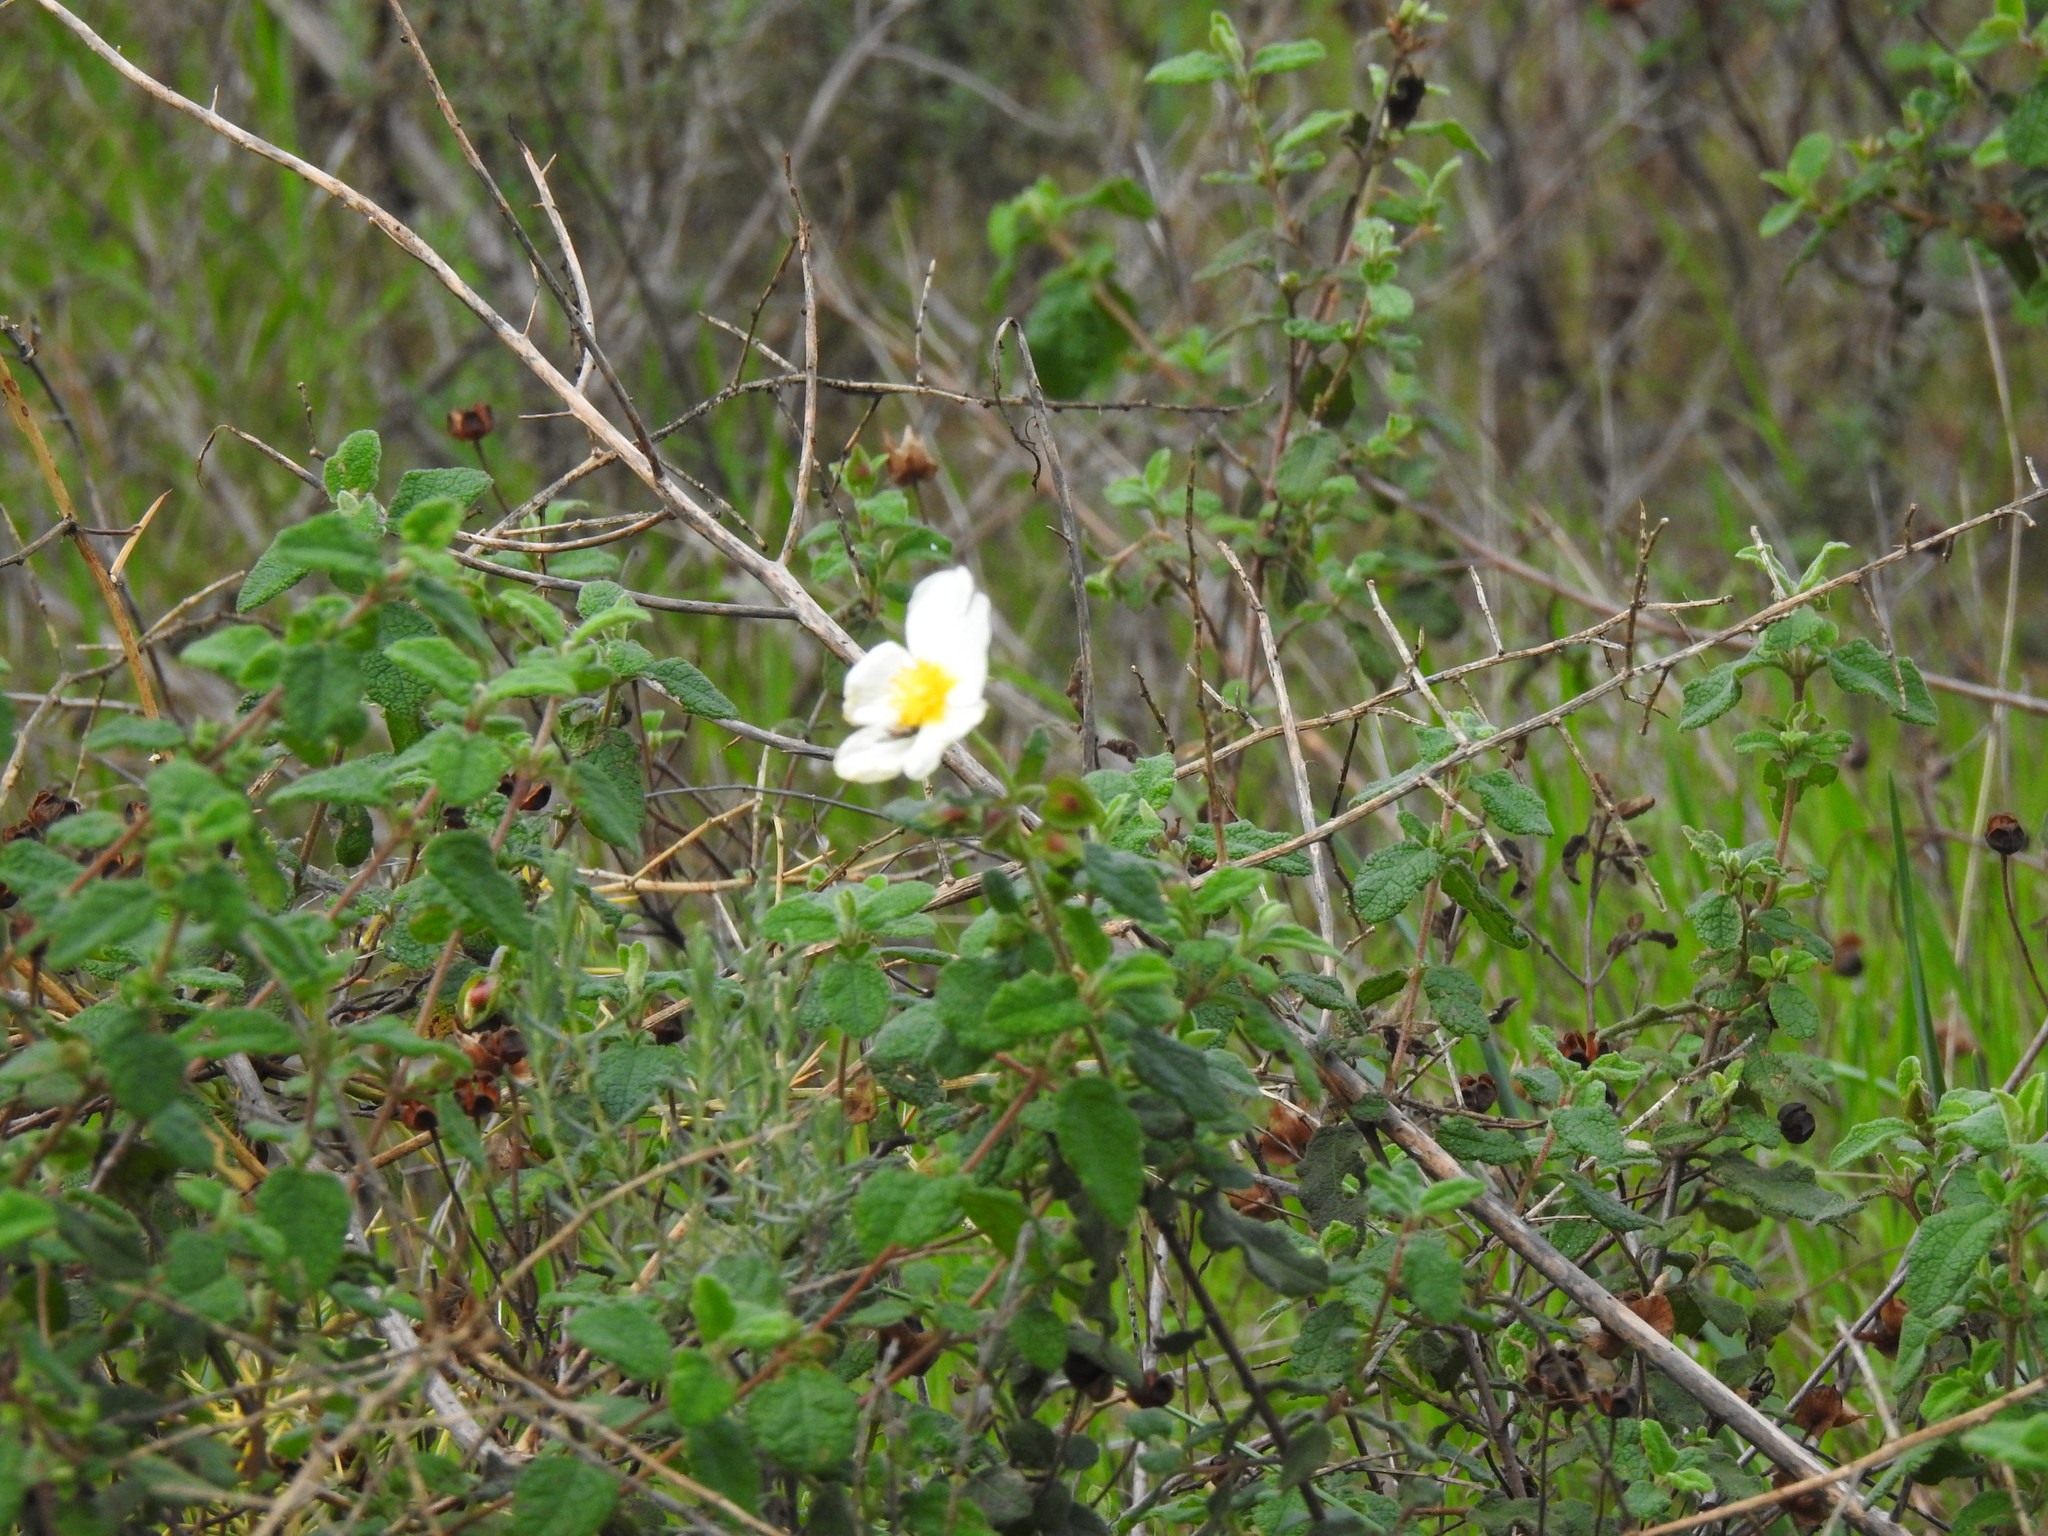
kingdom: Plantae
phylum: Tracheophyta
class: Magnoliopsida
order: Malvales
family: Cistaceae
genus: Cistus
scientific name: Cistus salviifolius
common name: Salvia cistus
